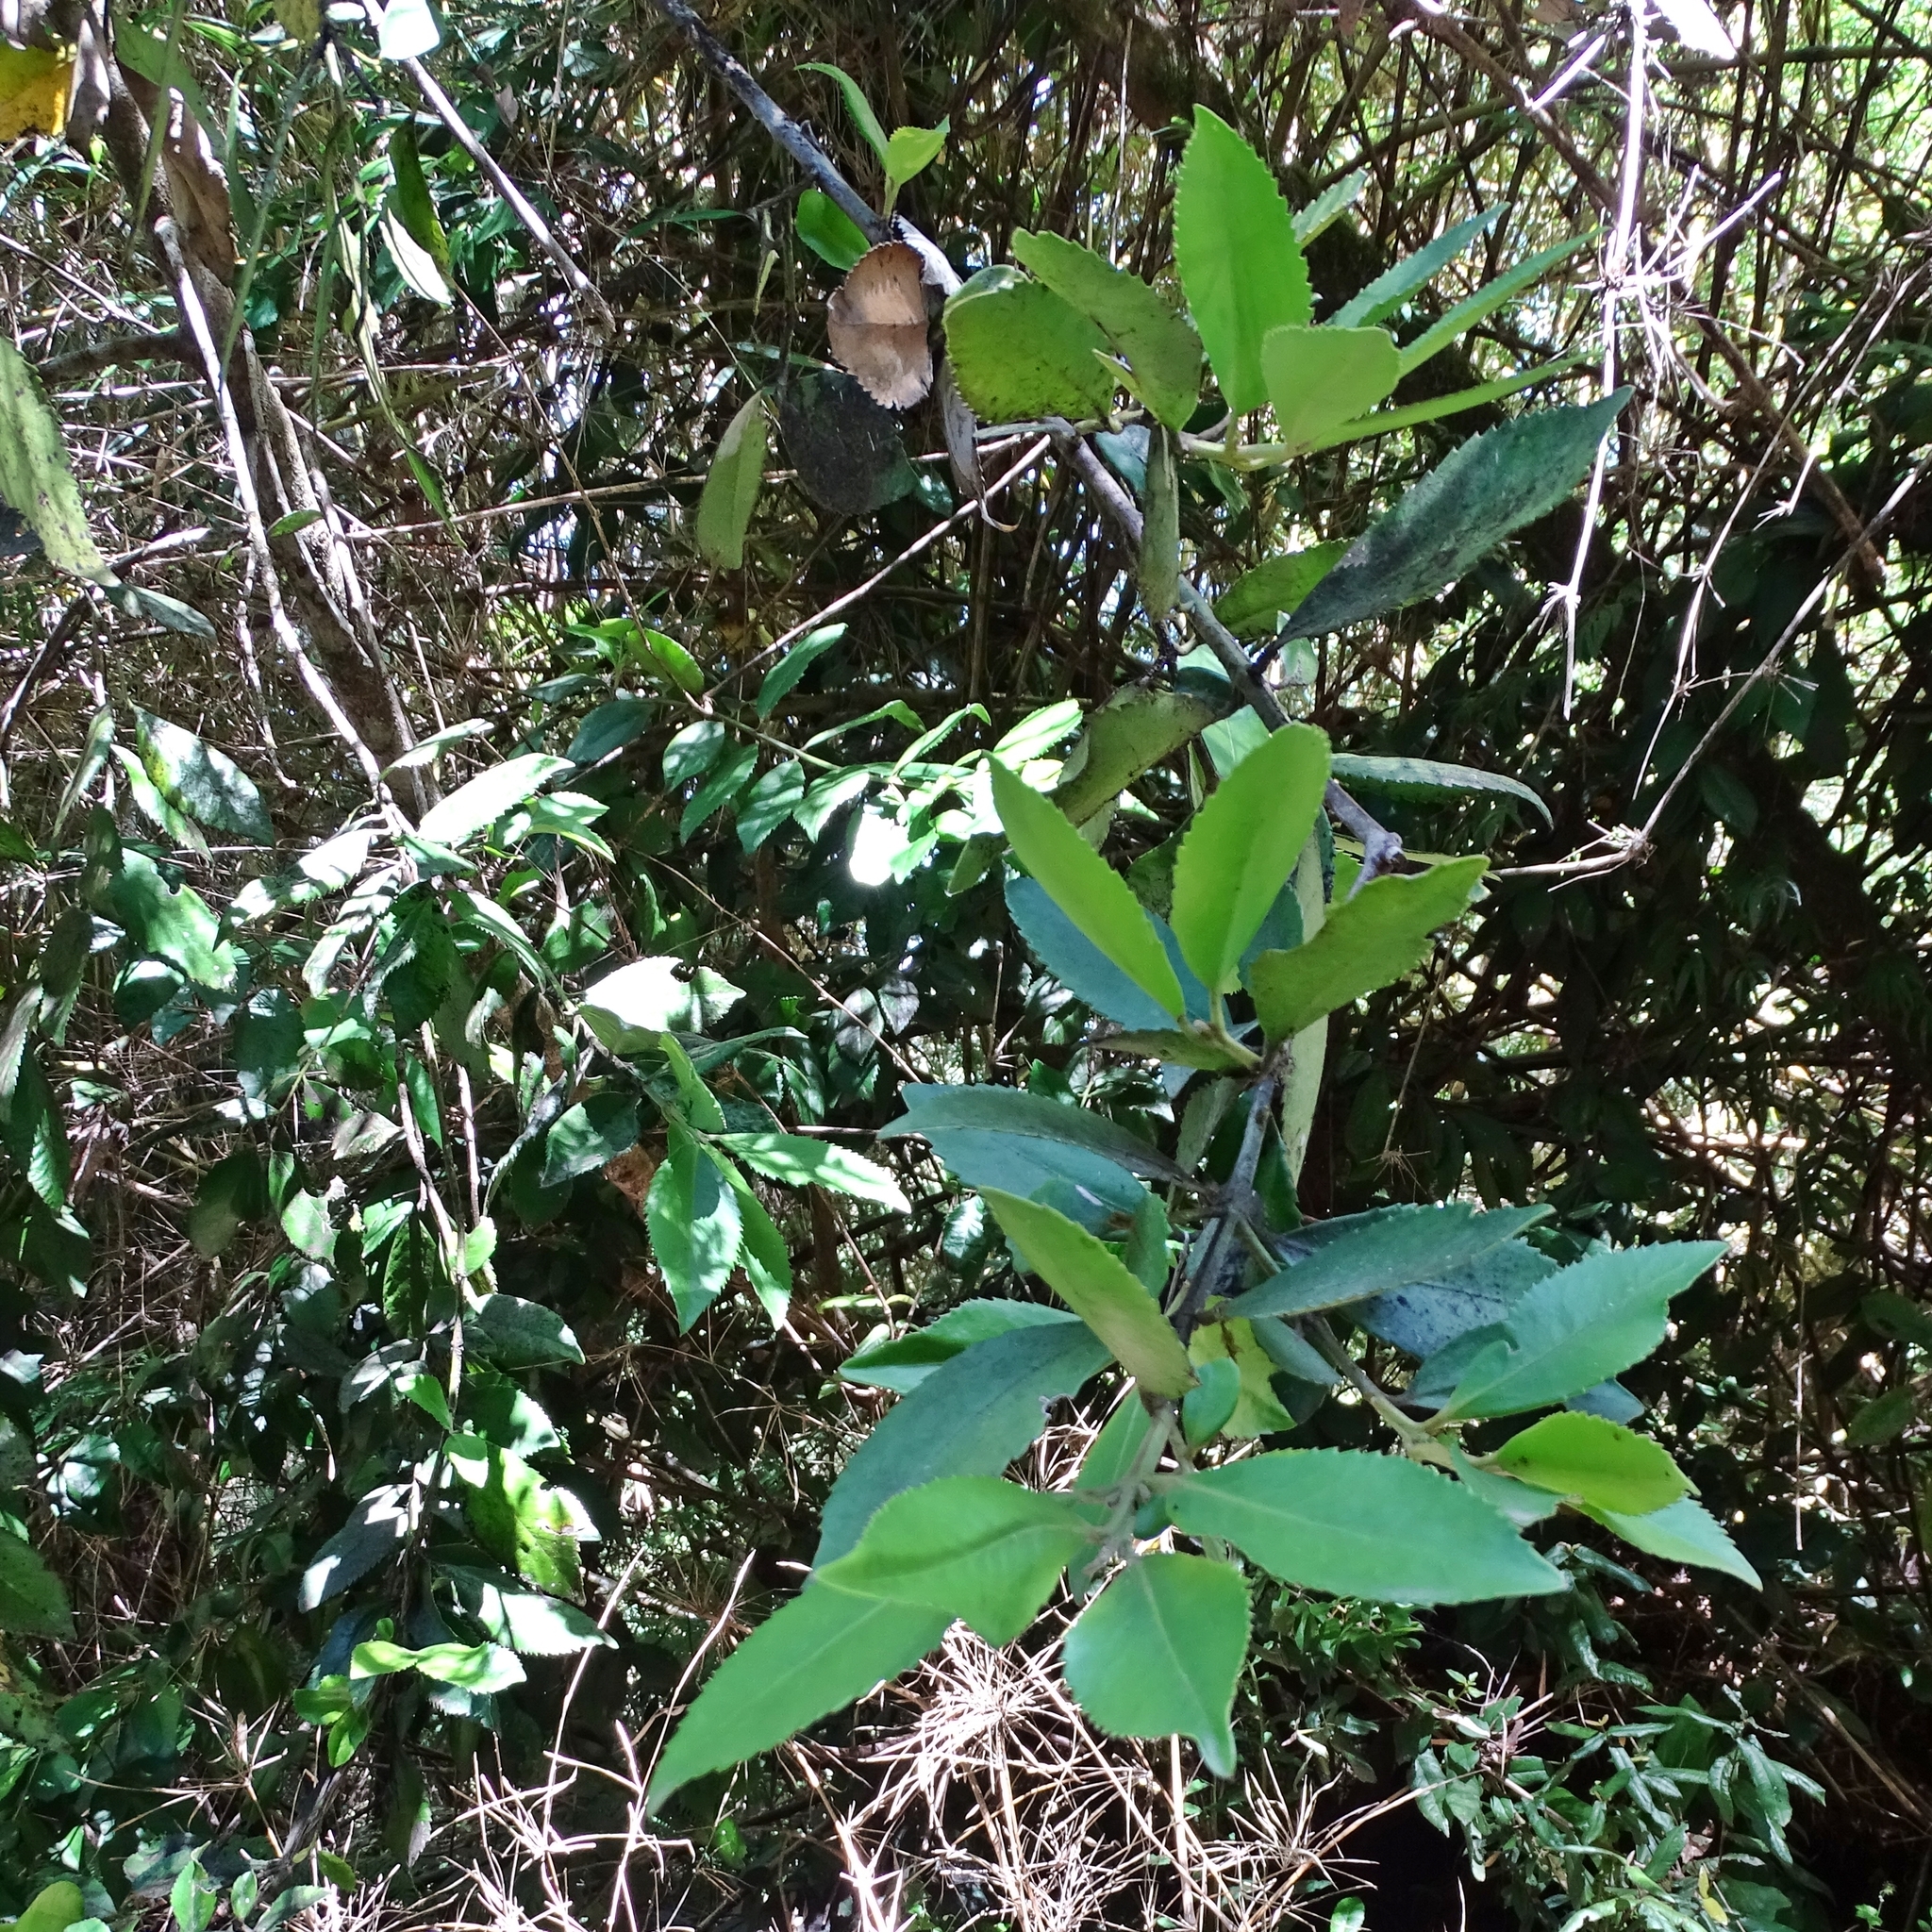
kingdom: Plantae
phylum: Tracheophyta
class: Magnoliopsida
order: Laurales
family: Atherospermataceae
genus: Laureliopsis
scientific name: Laureliopsis philippiana
